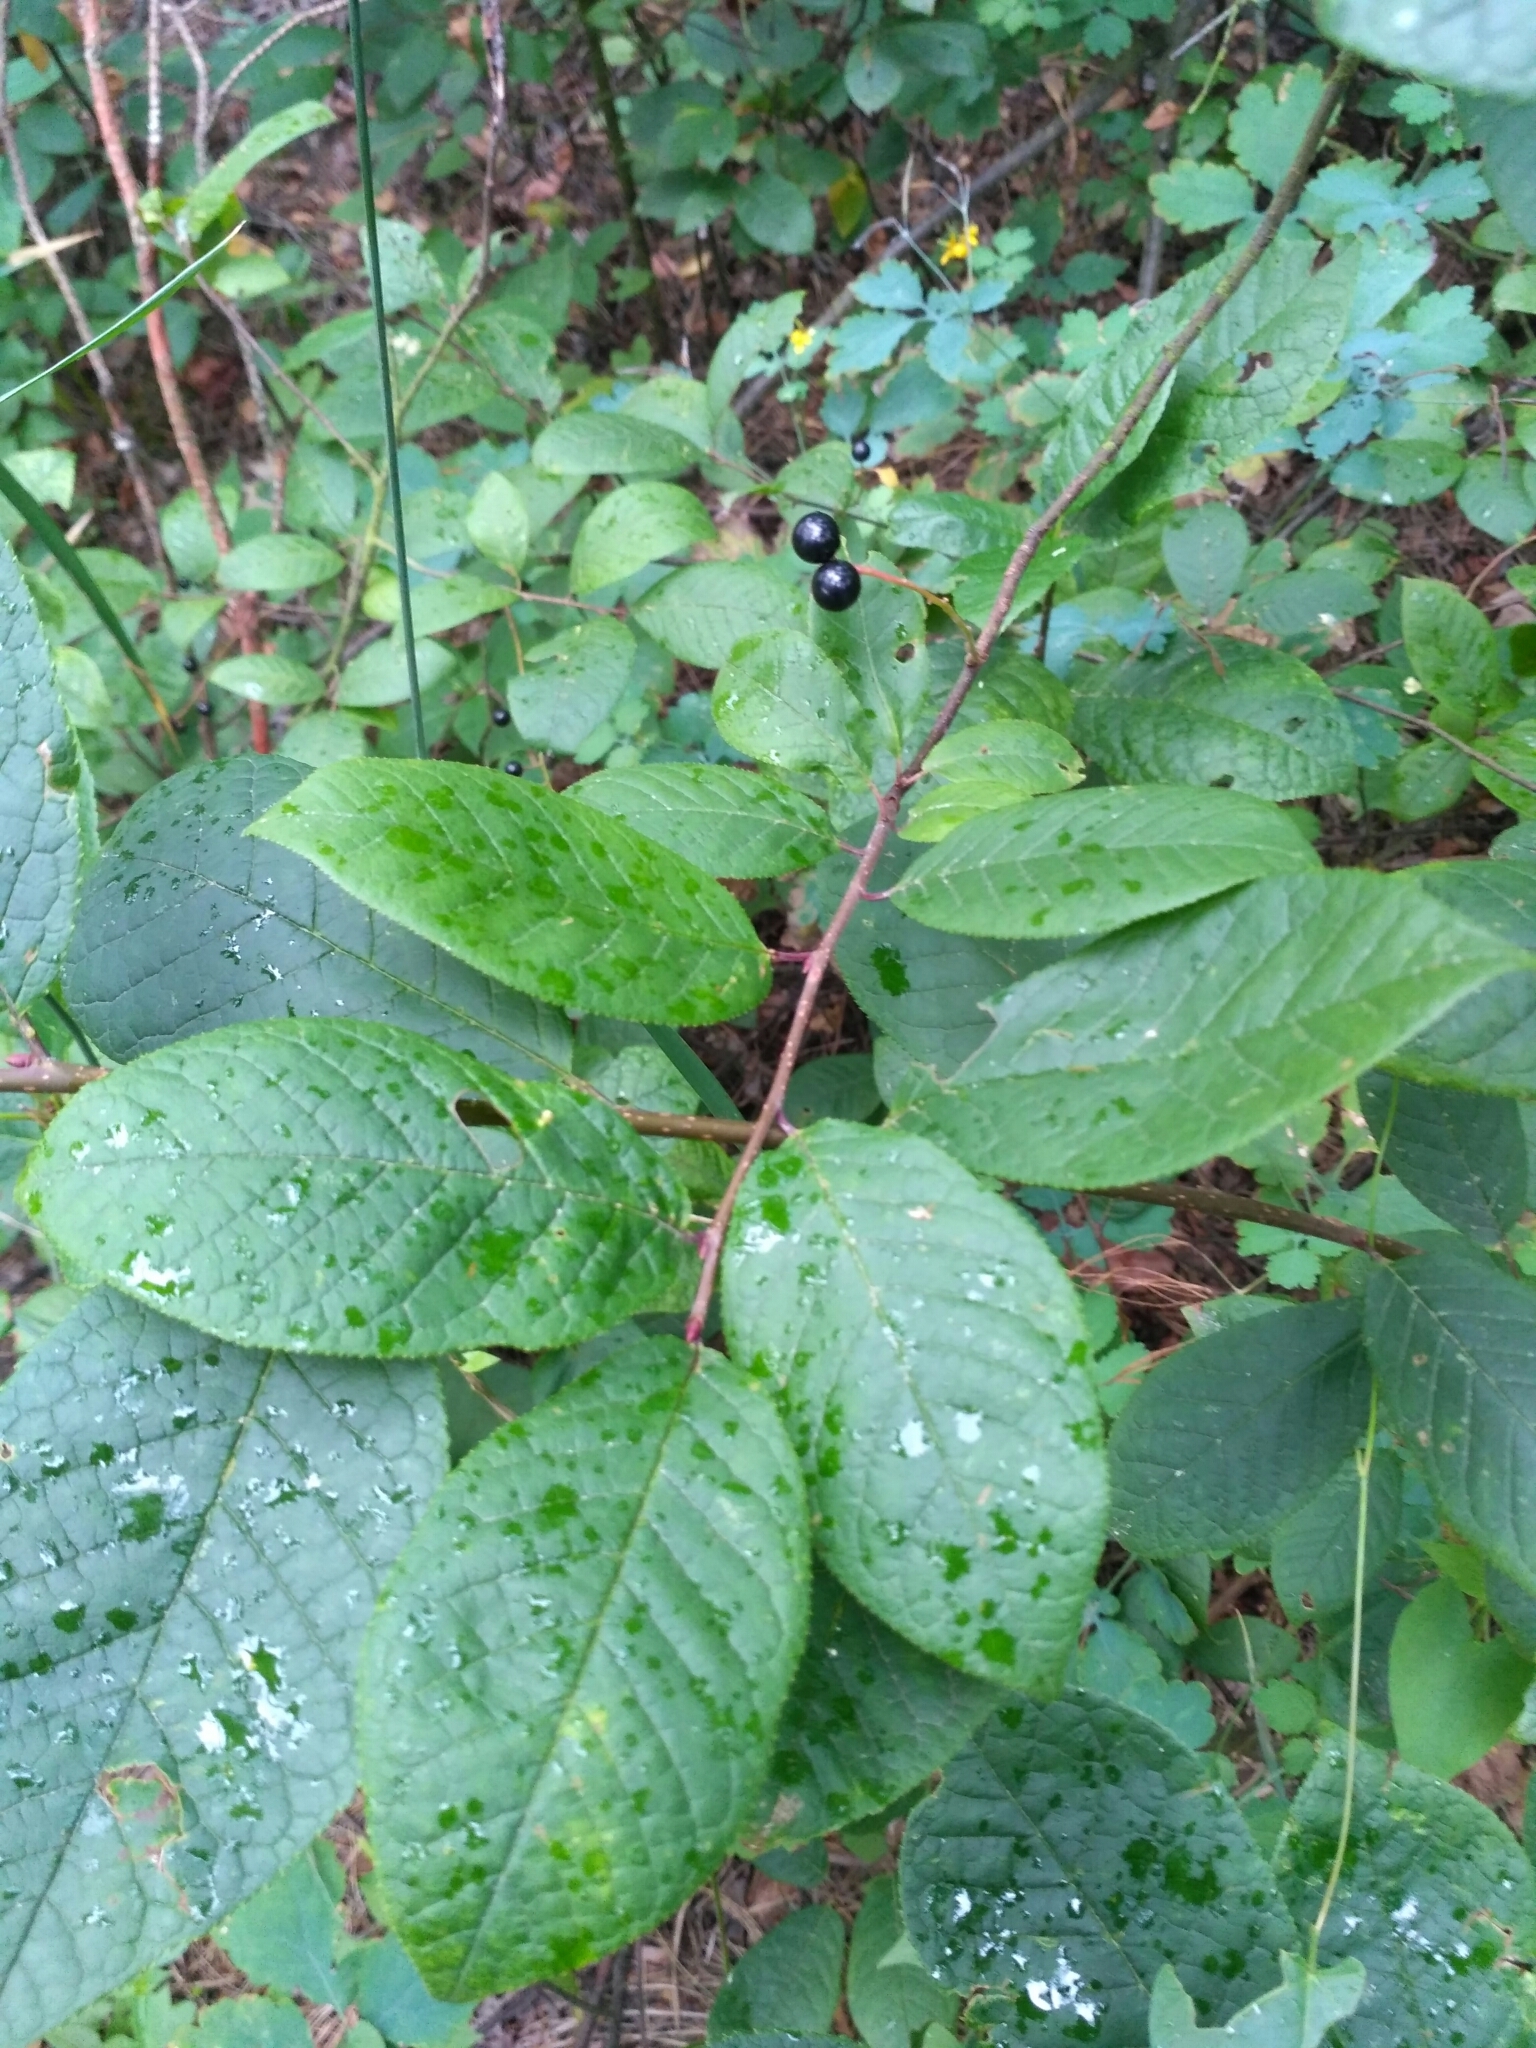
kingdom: Plantae
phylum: Tracheophyta
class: Magnoliopsida
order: Rosales
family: Rosaceae
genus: Prunus
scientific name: Prunus padus
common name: Bird cherry
